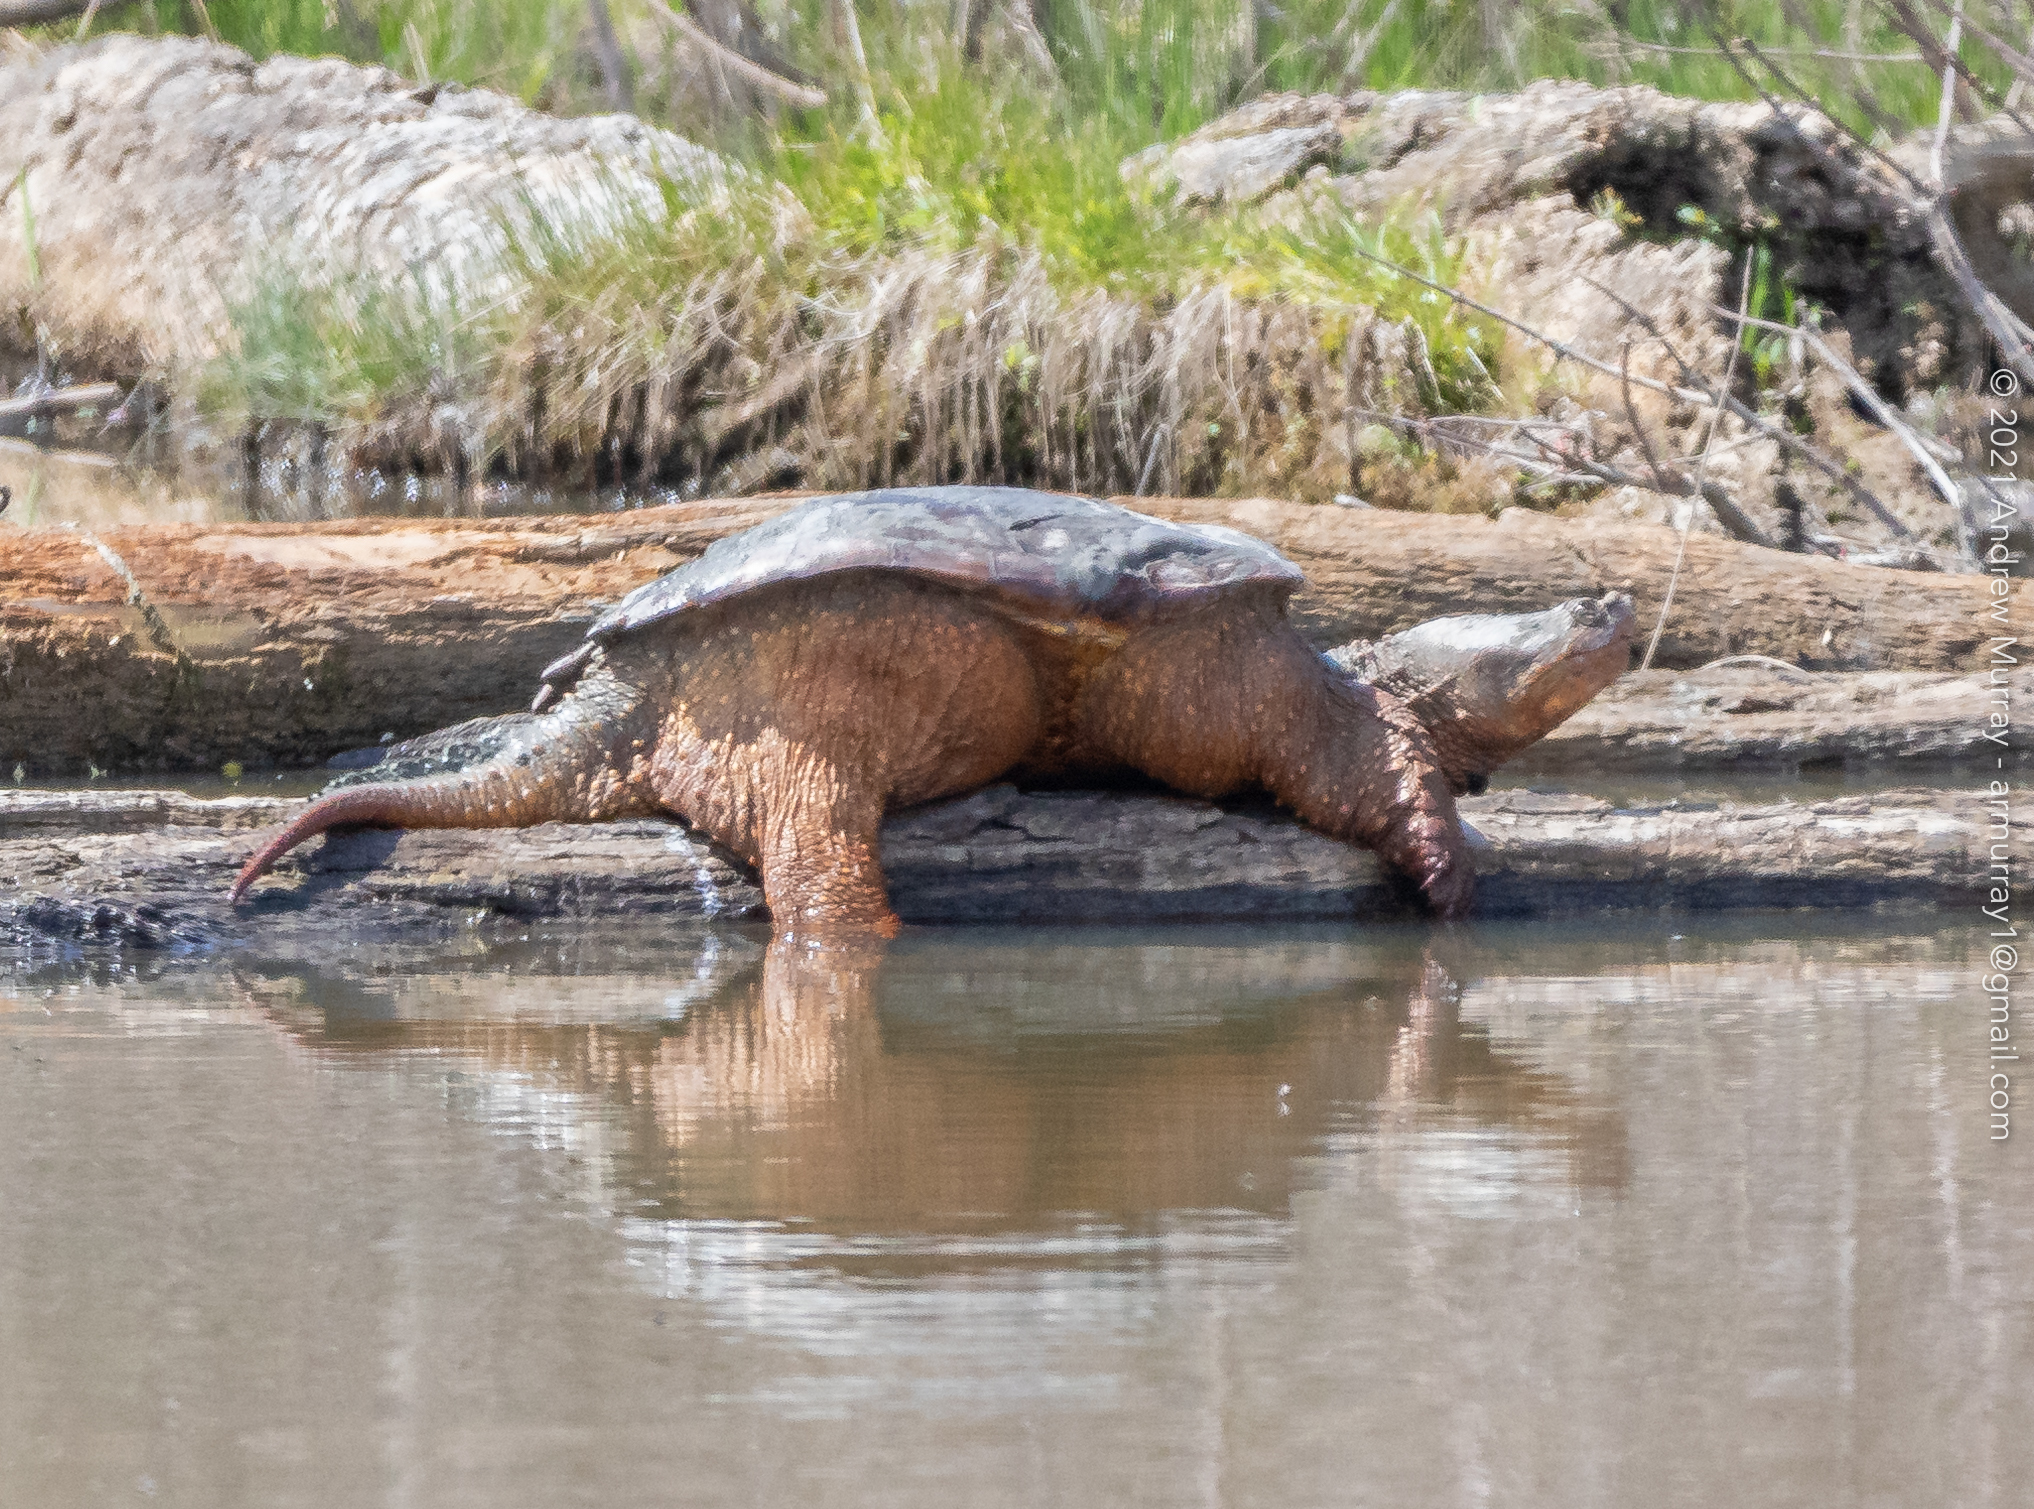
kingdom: Animalia
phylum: Chordata
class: Testudines
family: Chelydridae
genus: Chelydra
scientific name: Chelydra serpentina
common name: Common snapping turtle
